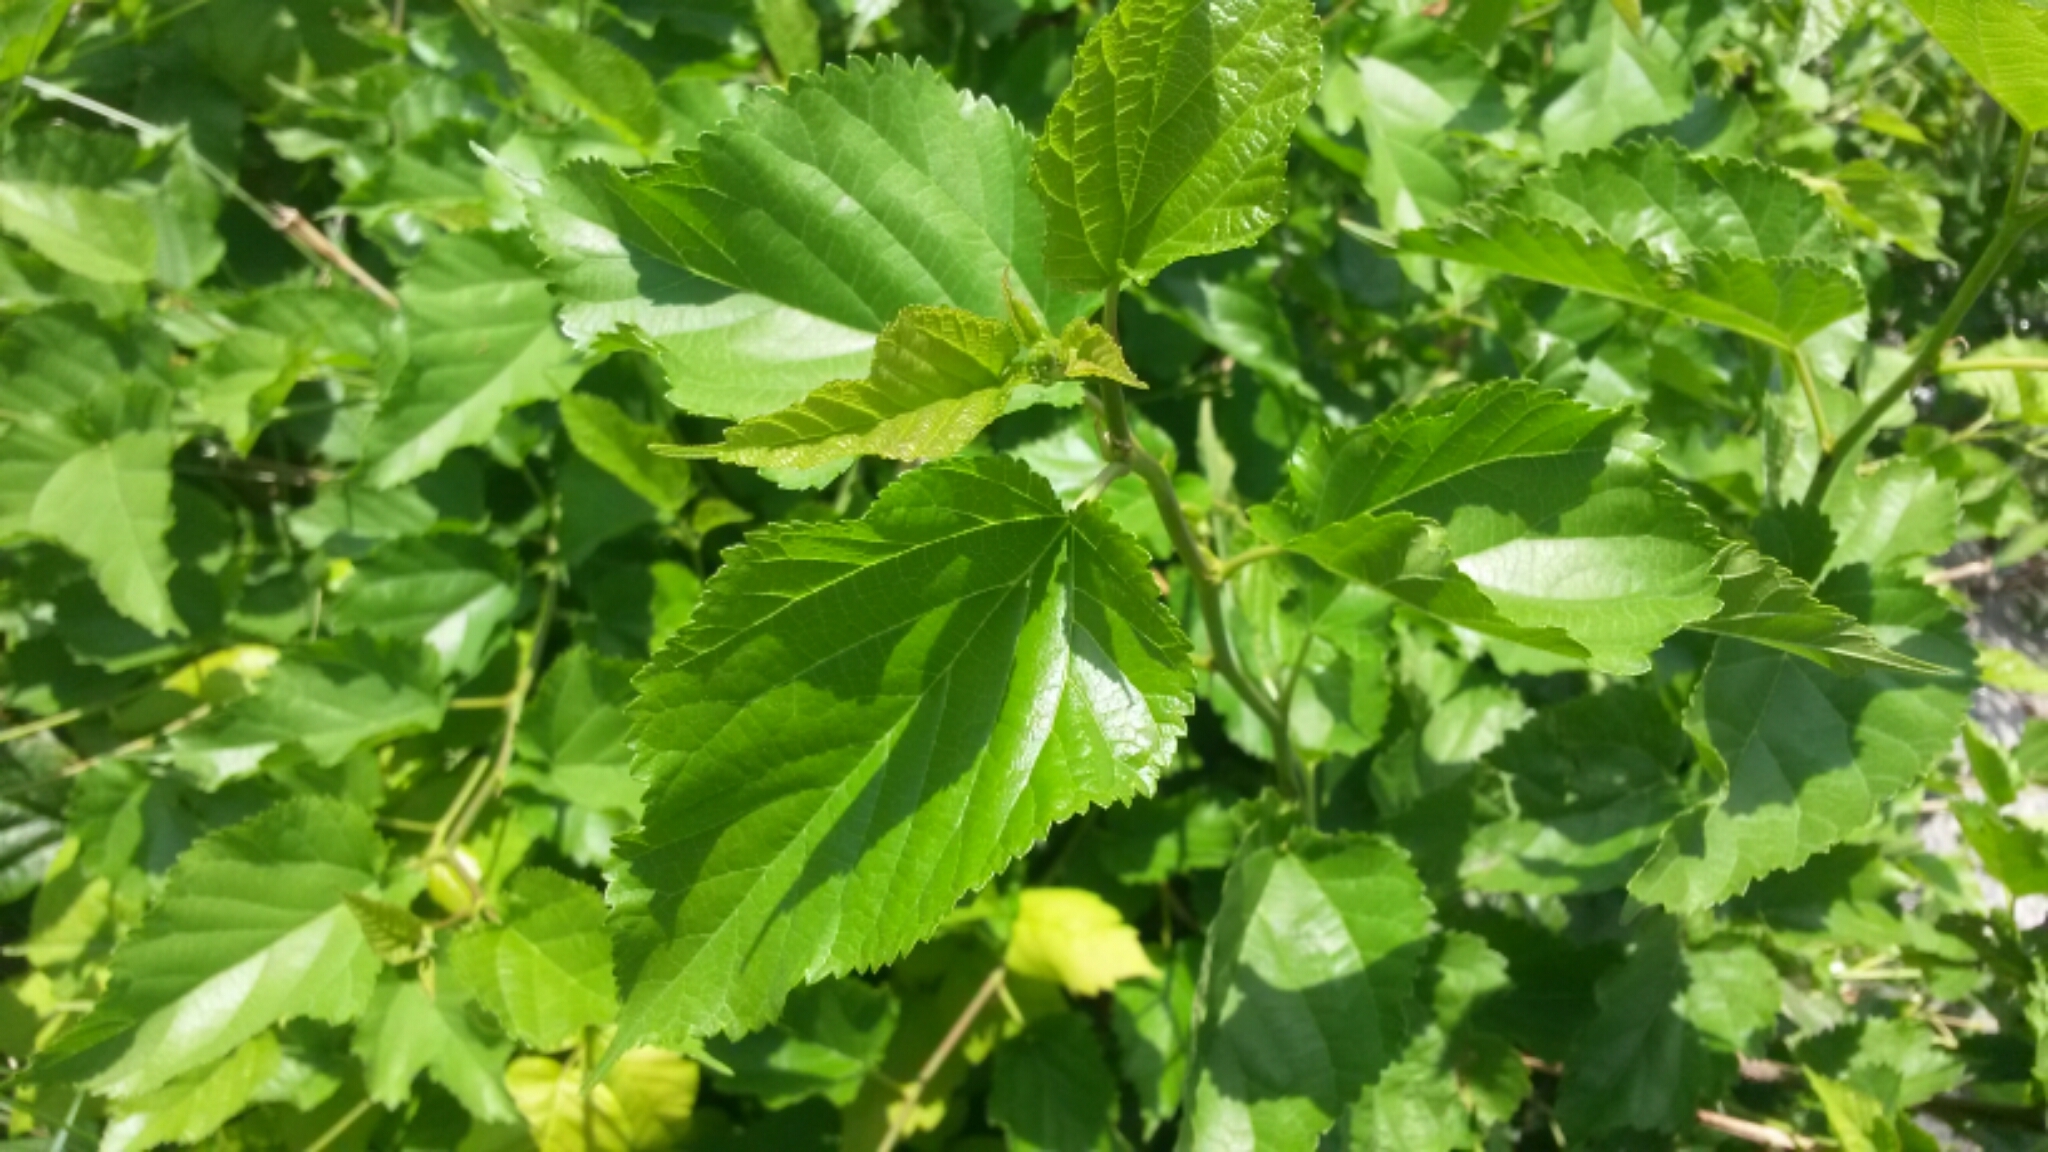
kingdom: Plantae
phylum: Tracheophyta
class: Magnoliopsida
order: Rosales
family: Moraceae
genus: Morus
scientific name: Morus alba
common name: White mulberry
